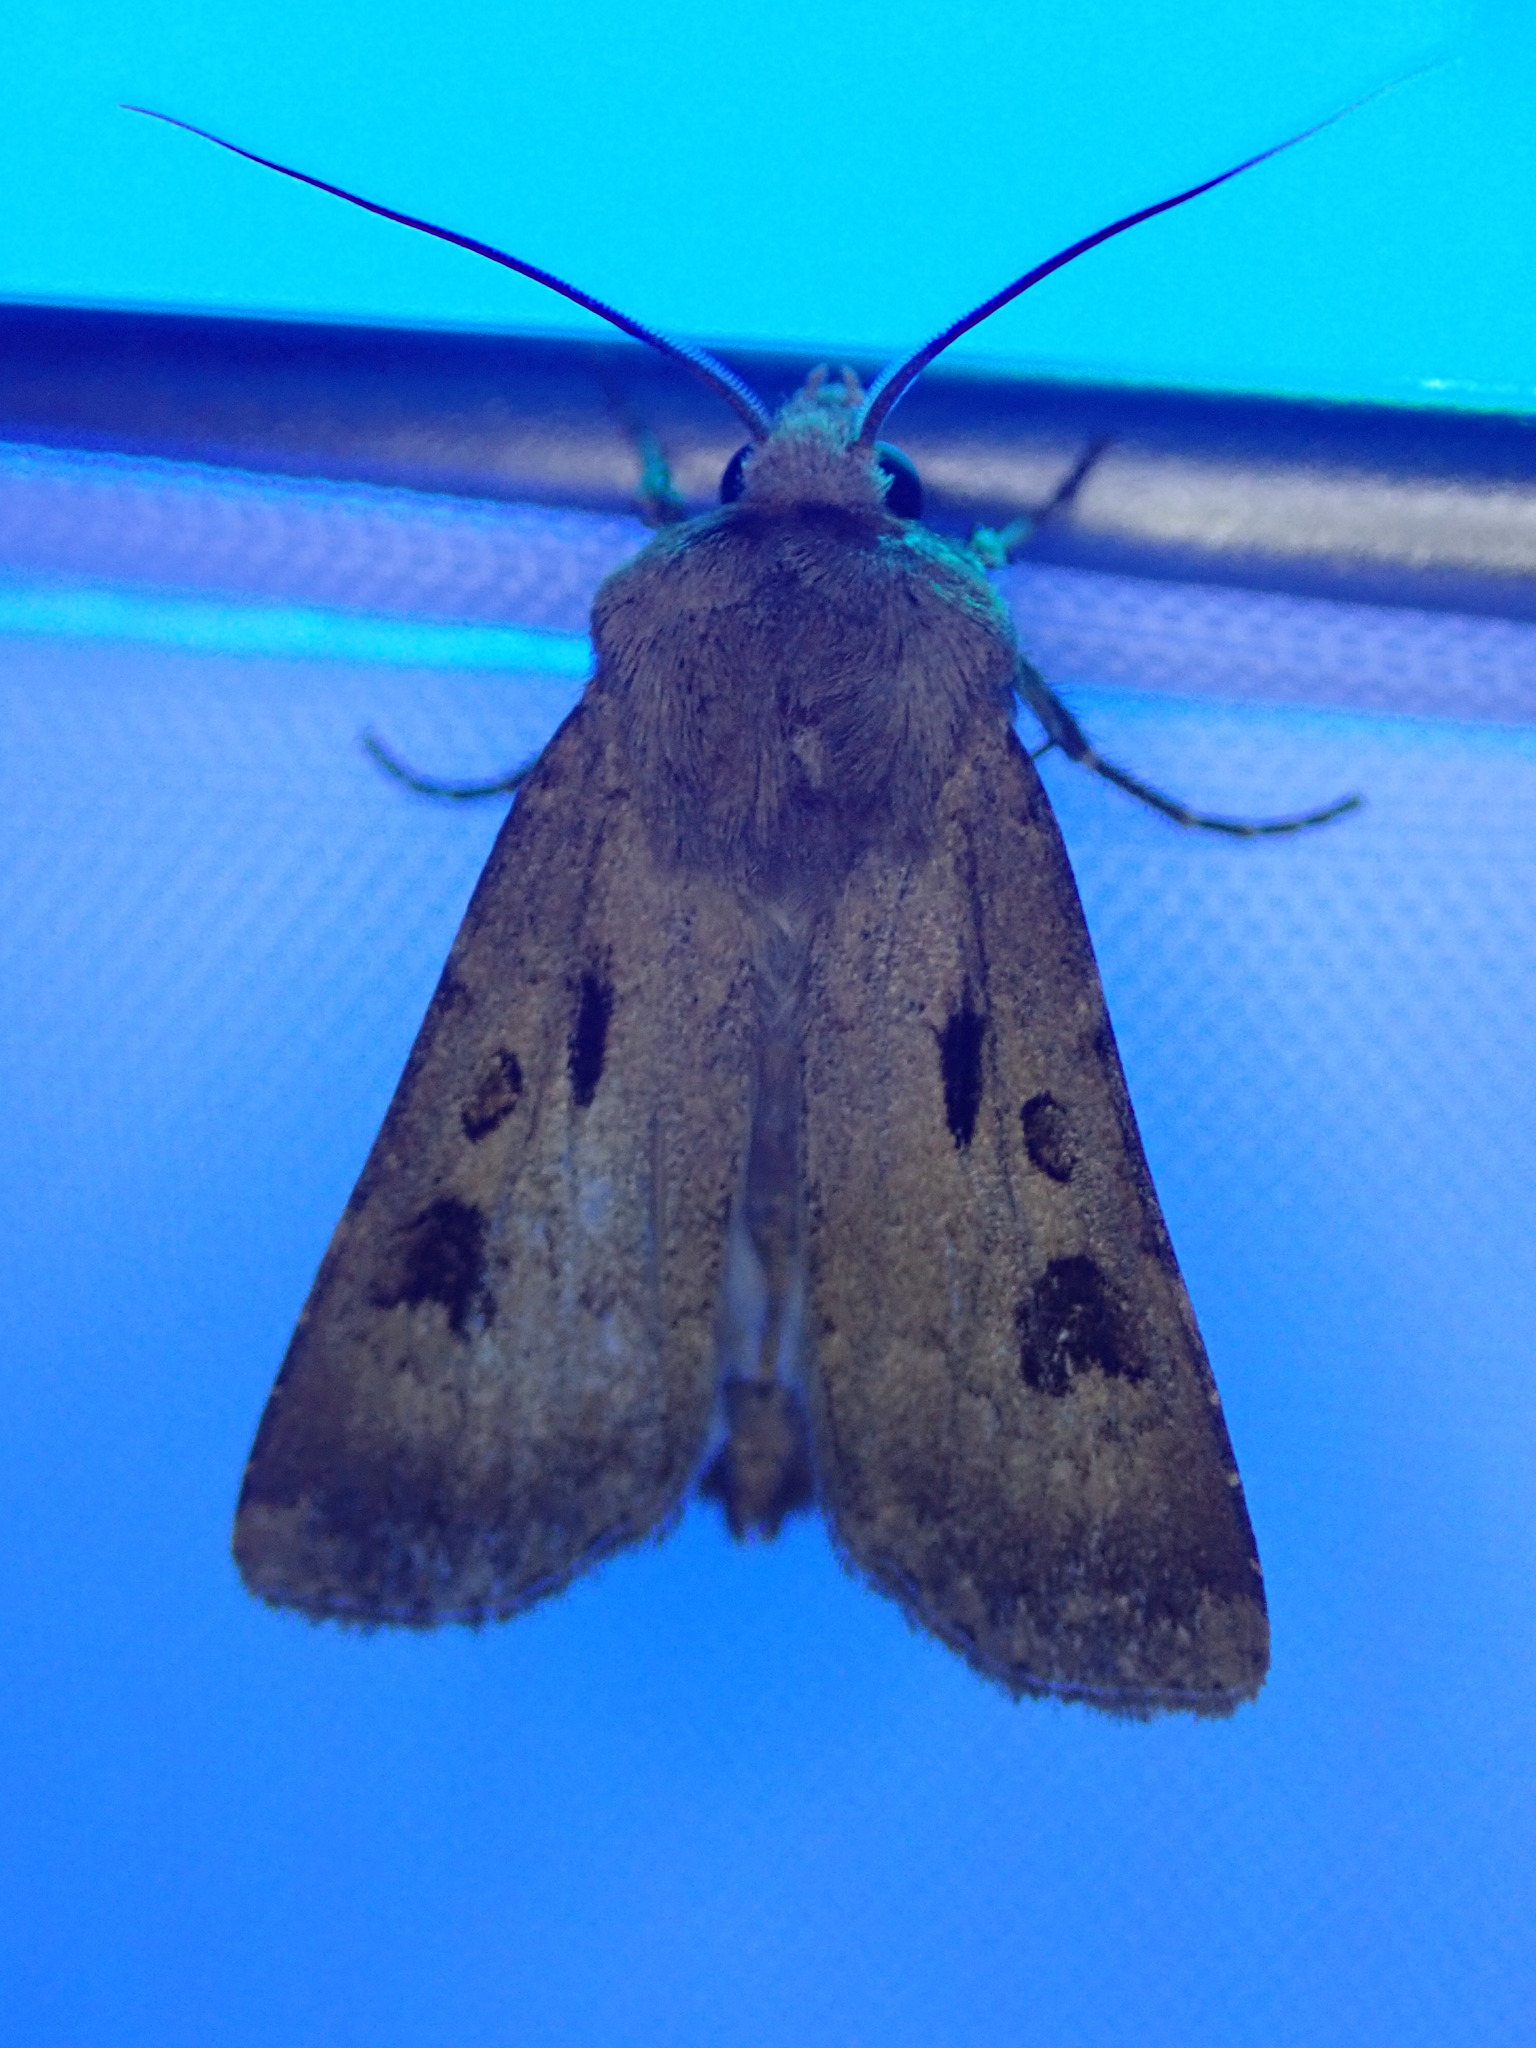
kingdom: Animalia
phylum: Arthropoda
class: Insecta
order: Lepidoptera
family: Noctuidae
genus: Agrotis
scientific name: Agrotis exclamationis
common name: Heart and dart
